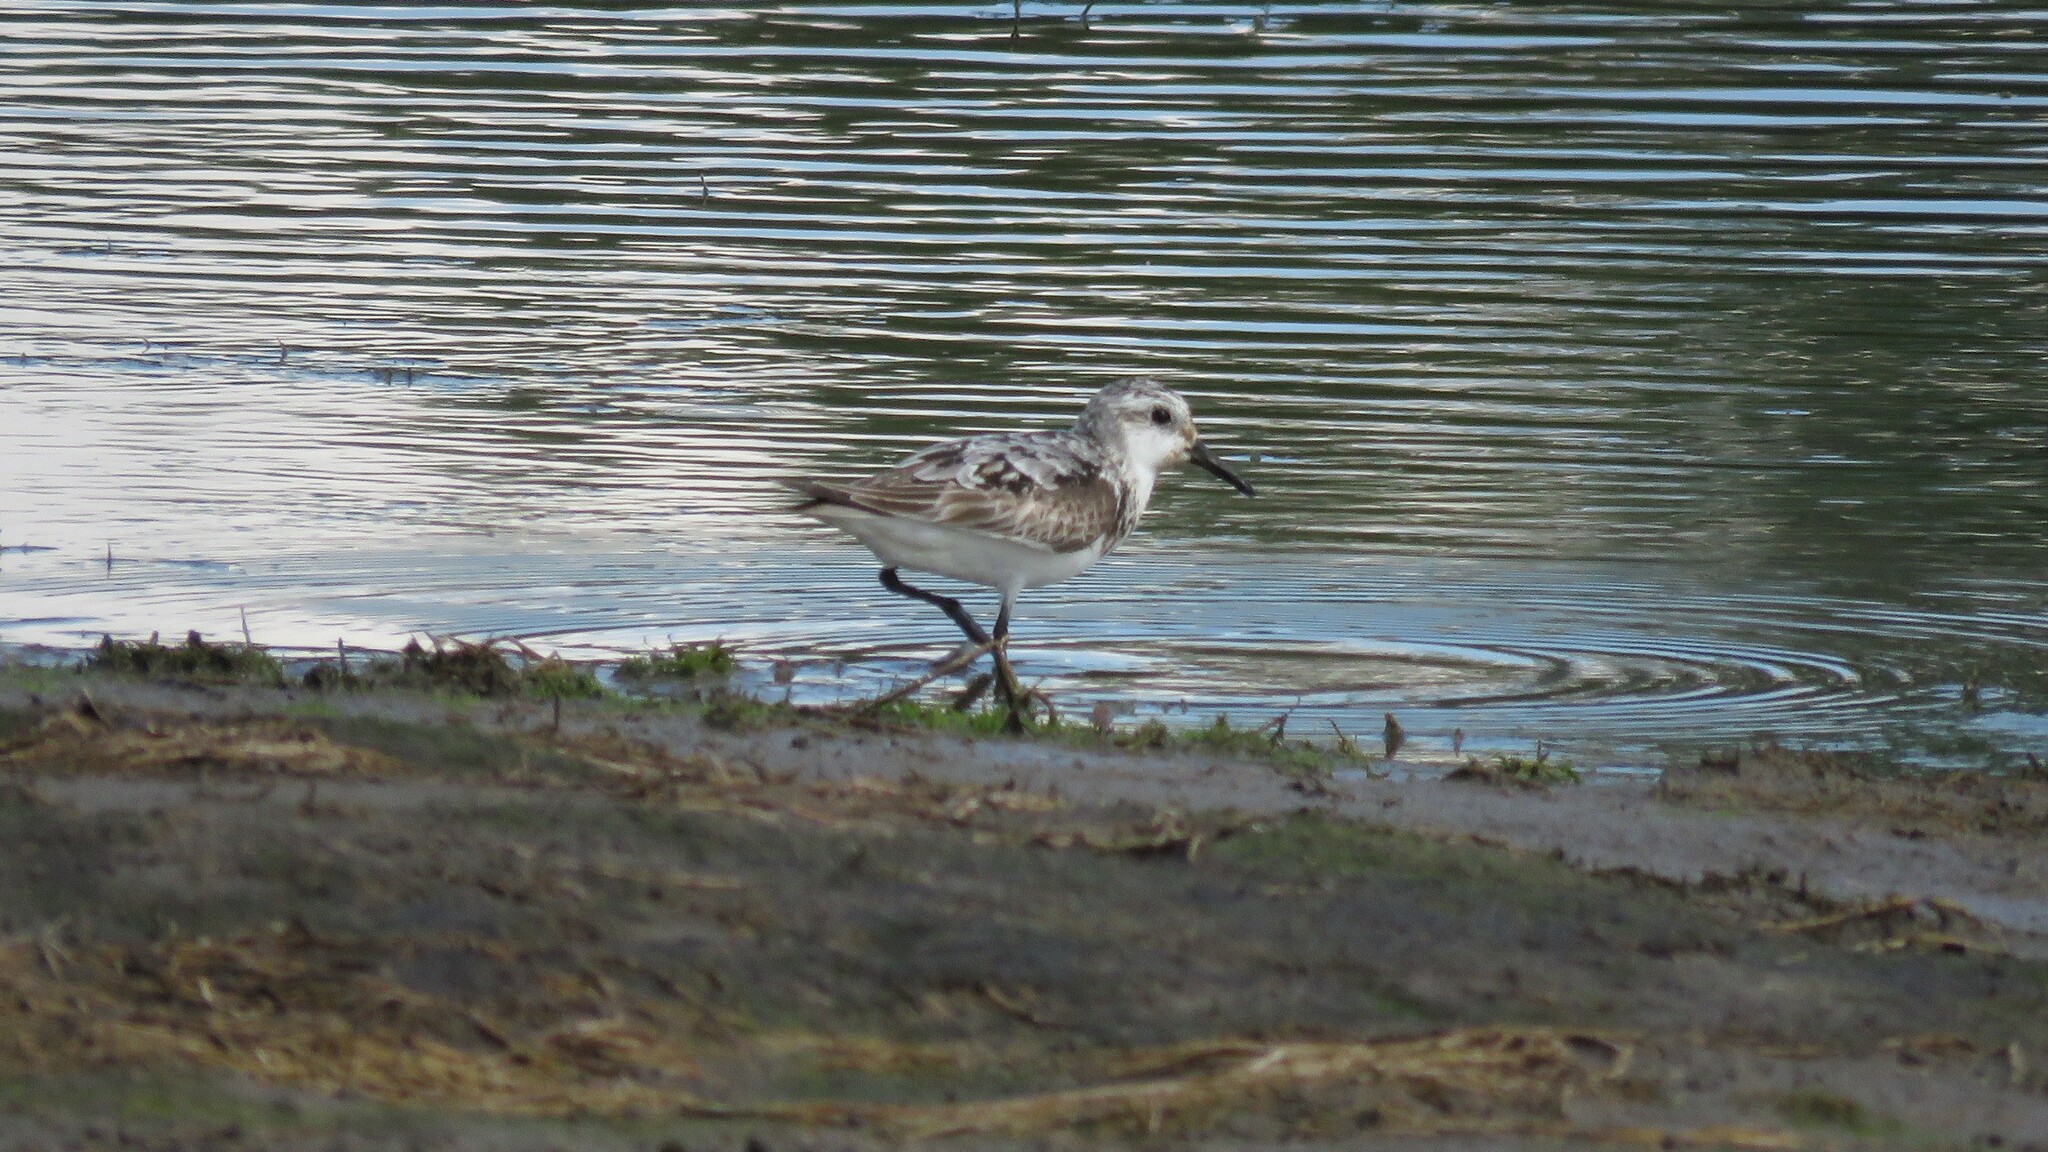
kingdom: Animalia
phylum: Chordata
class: Aves
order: Charadriiformes
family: Scolopacidae
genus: Calidris
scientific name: Calidris alba
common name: Sanderling
